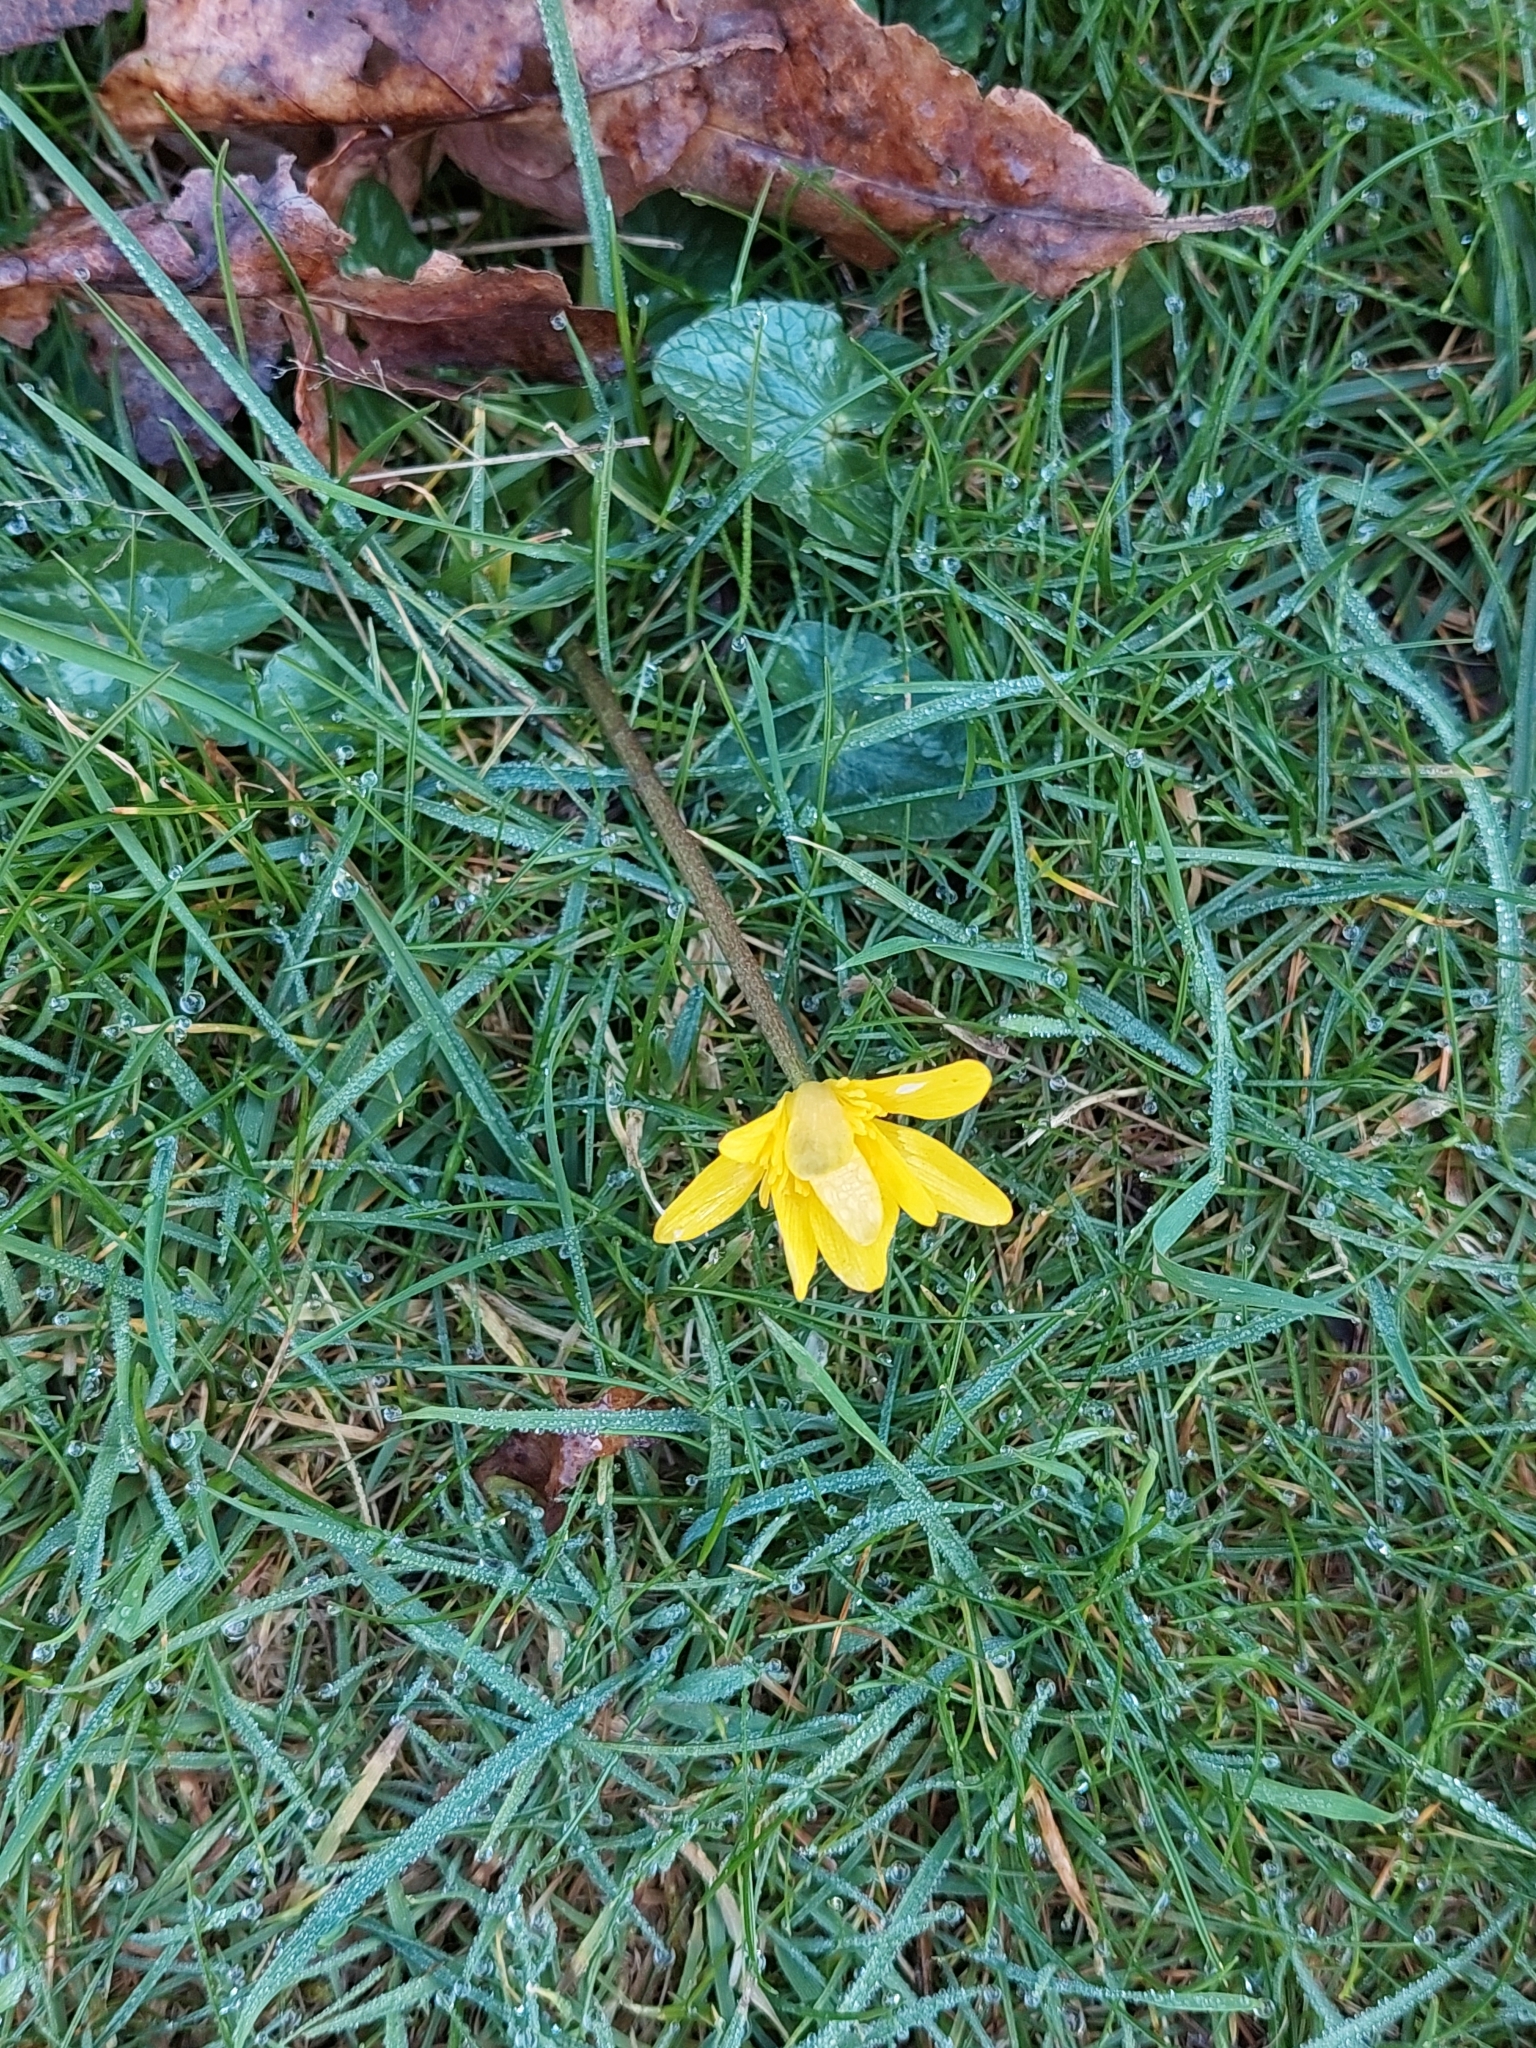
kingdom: Plantae
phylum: Tracheophyta
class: Magnoliopsida
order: Ranunculales
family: Ranunculaceae
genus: Ficaria
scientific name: Ficaria verna
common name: Lesser celandine
